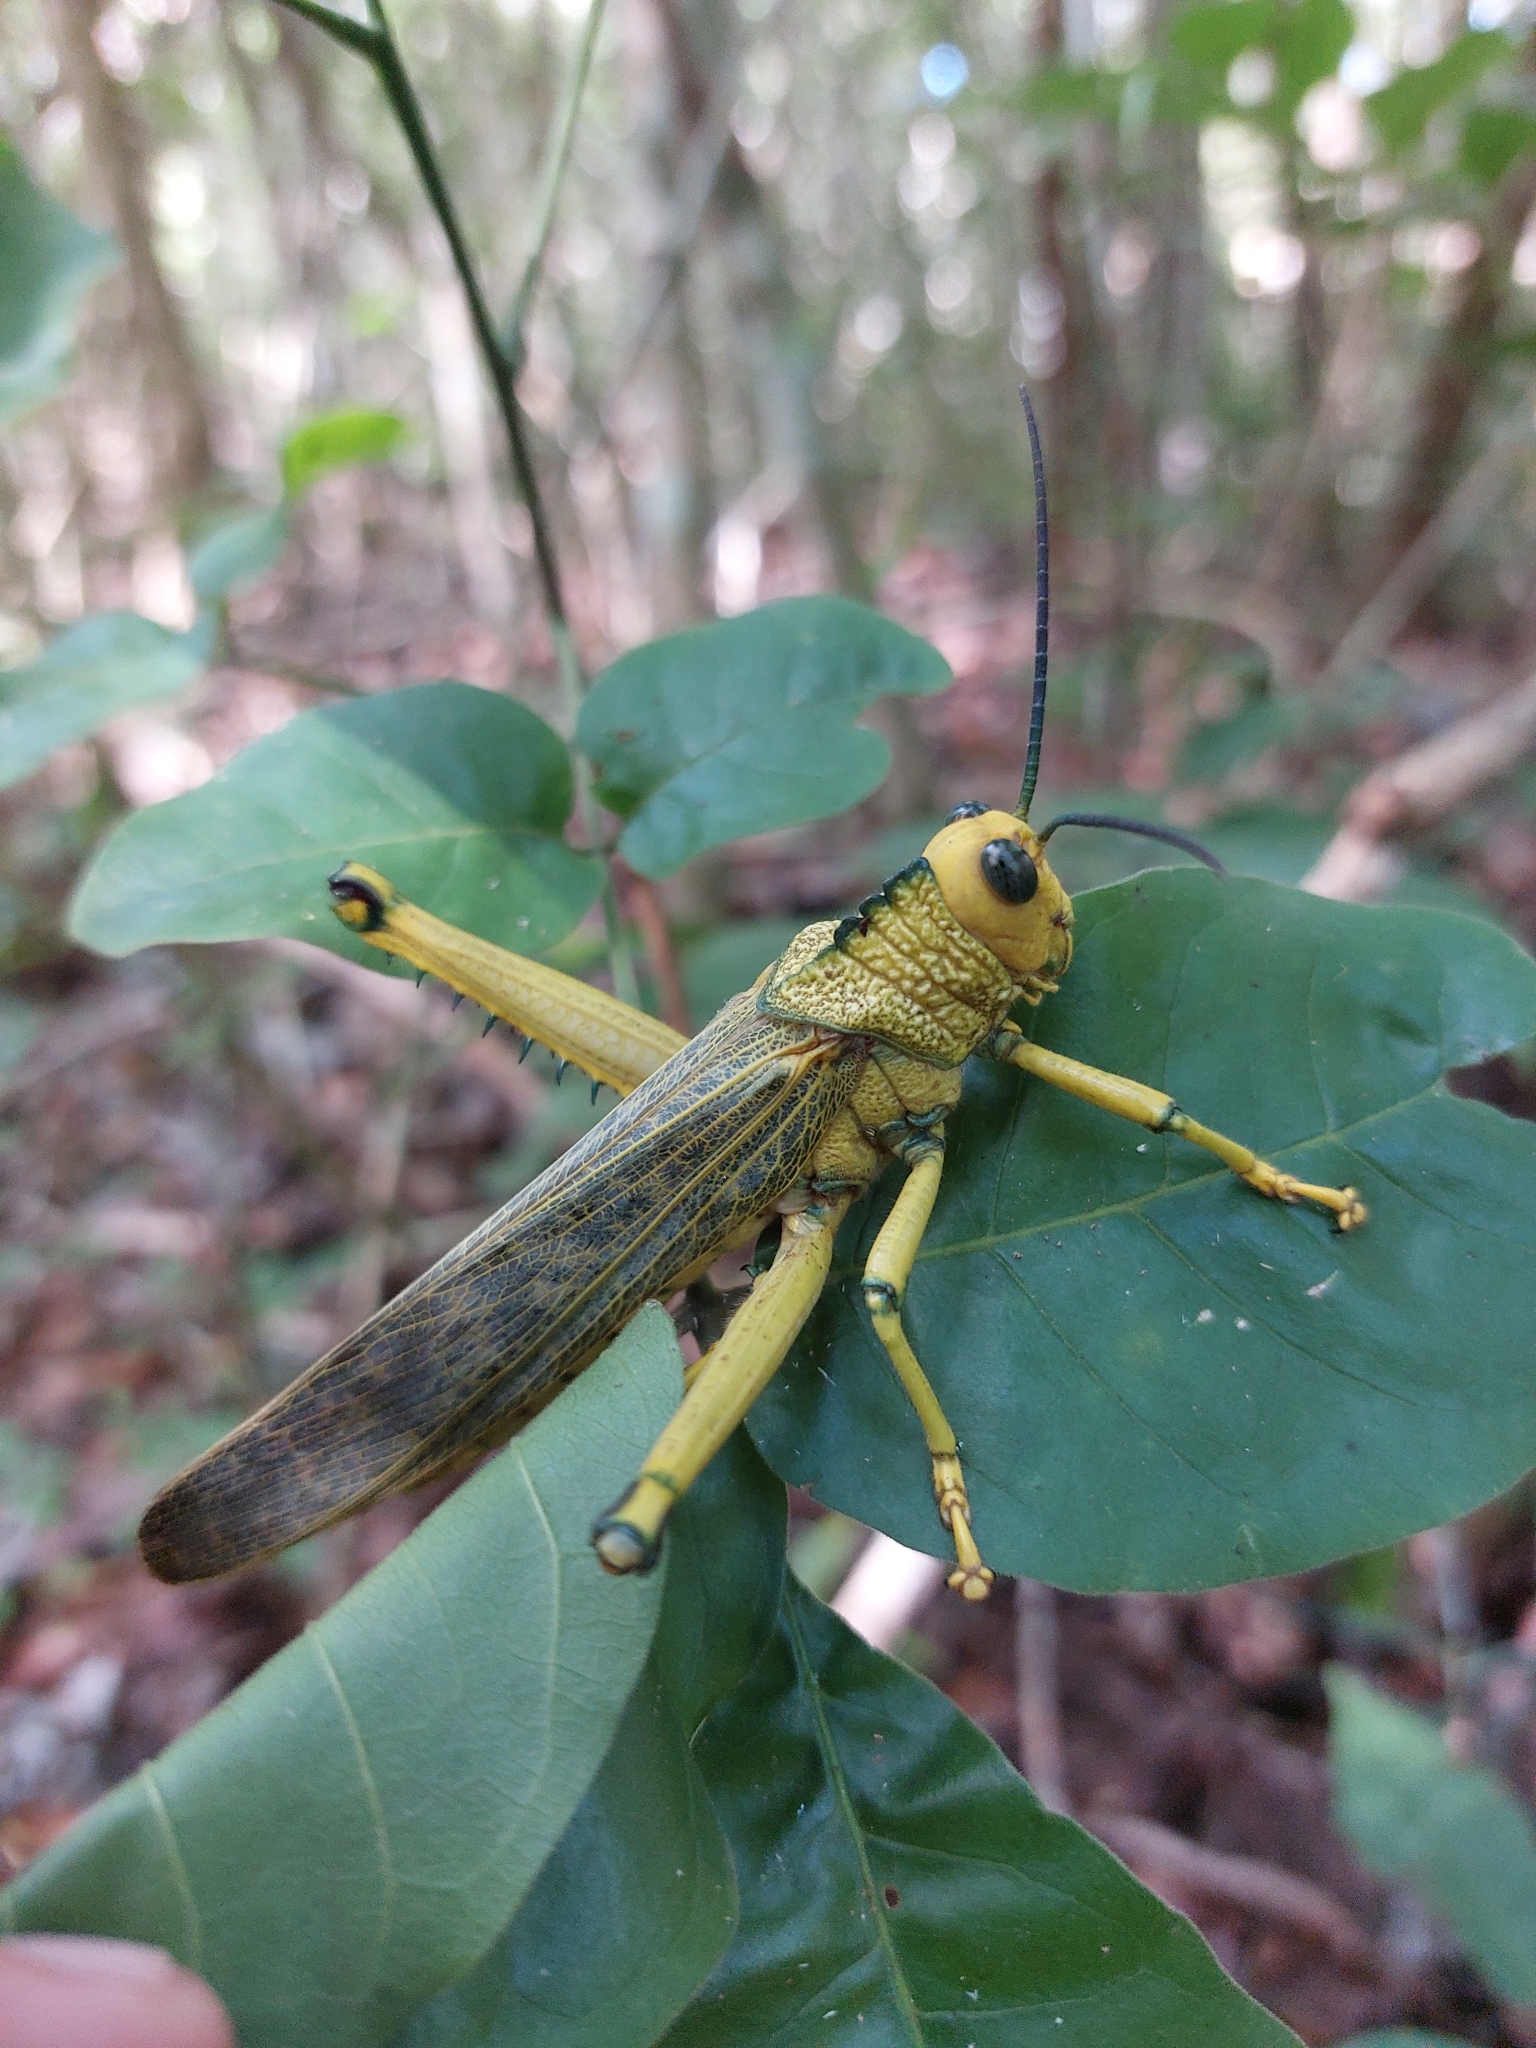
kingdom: Animalia
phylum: Arthropoda
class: Insecta
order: Orthoptera
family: Romaleidae
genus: Tropidacris
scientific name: Tropidacris cristata
